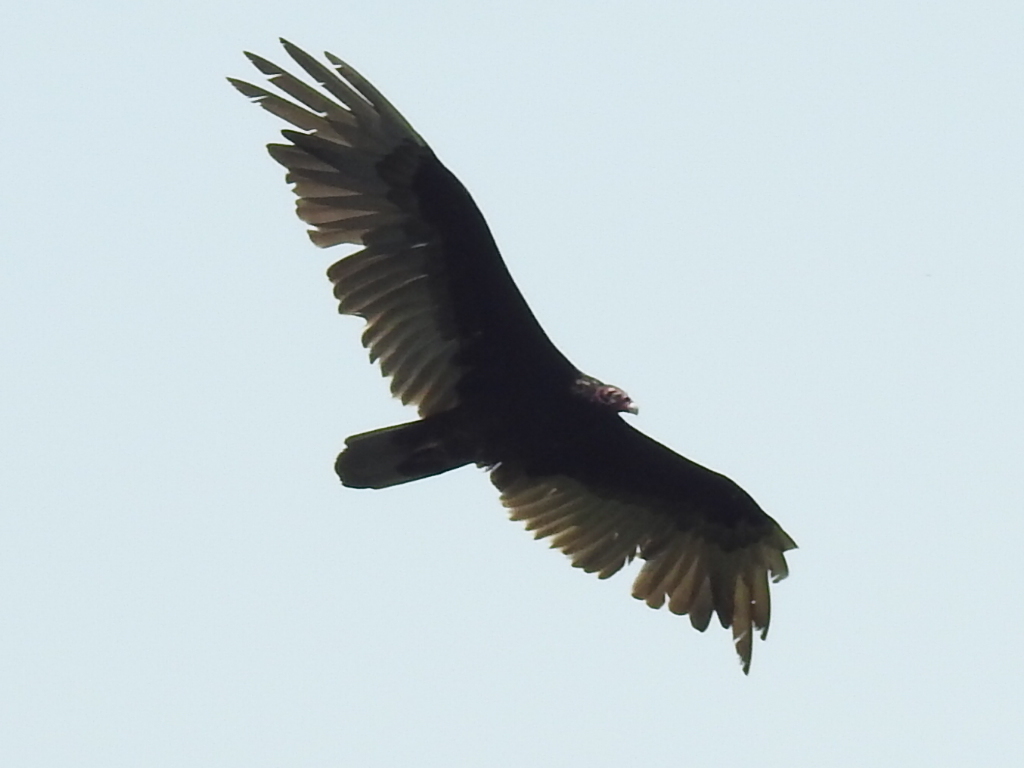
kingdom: Animalia
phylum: Chordata
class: Aves
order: Accipitriformes
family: Cathartidae
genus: Cathartes
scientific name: Cathartes aura
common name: Turkey vulture
